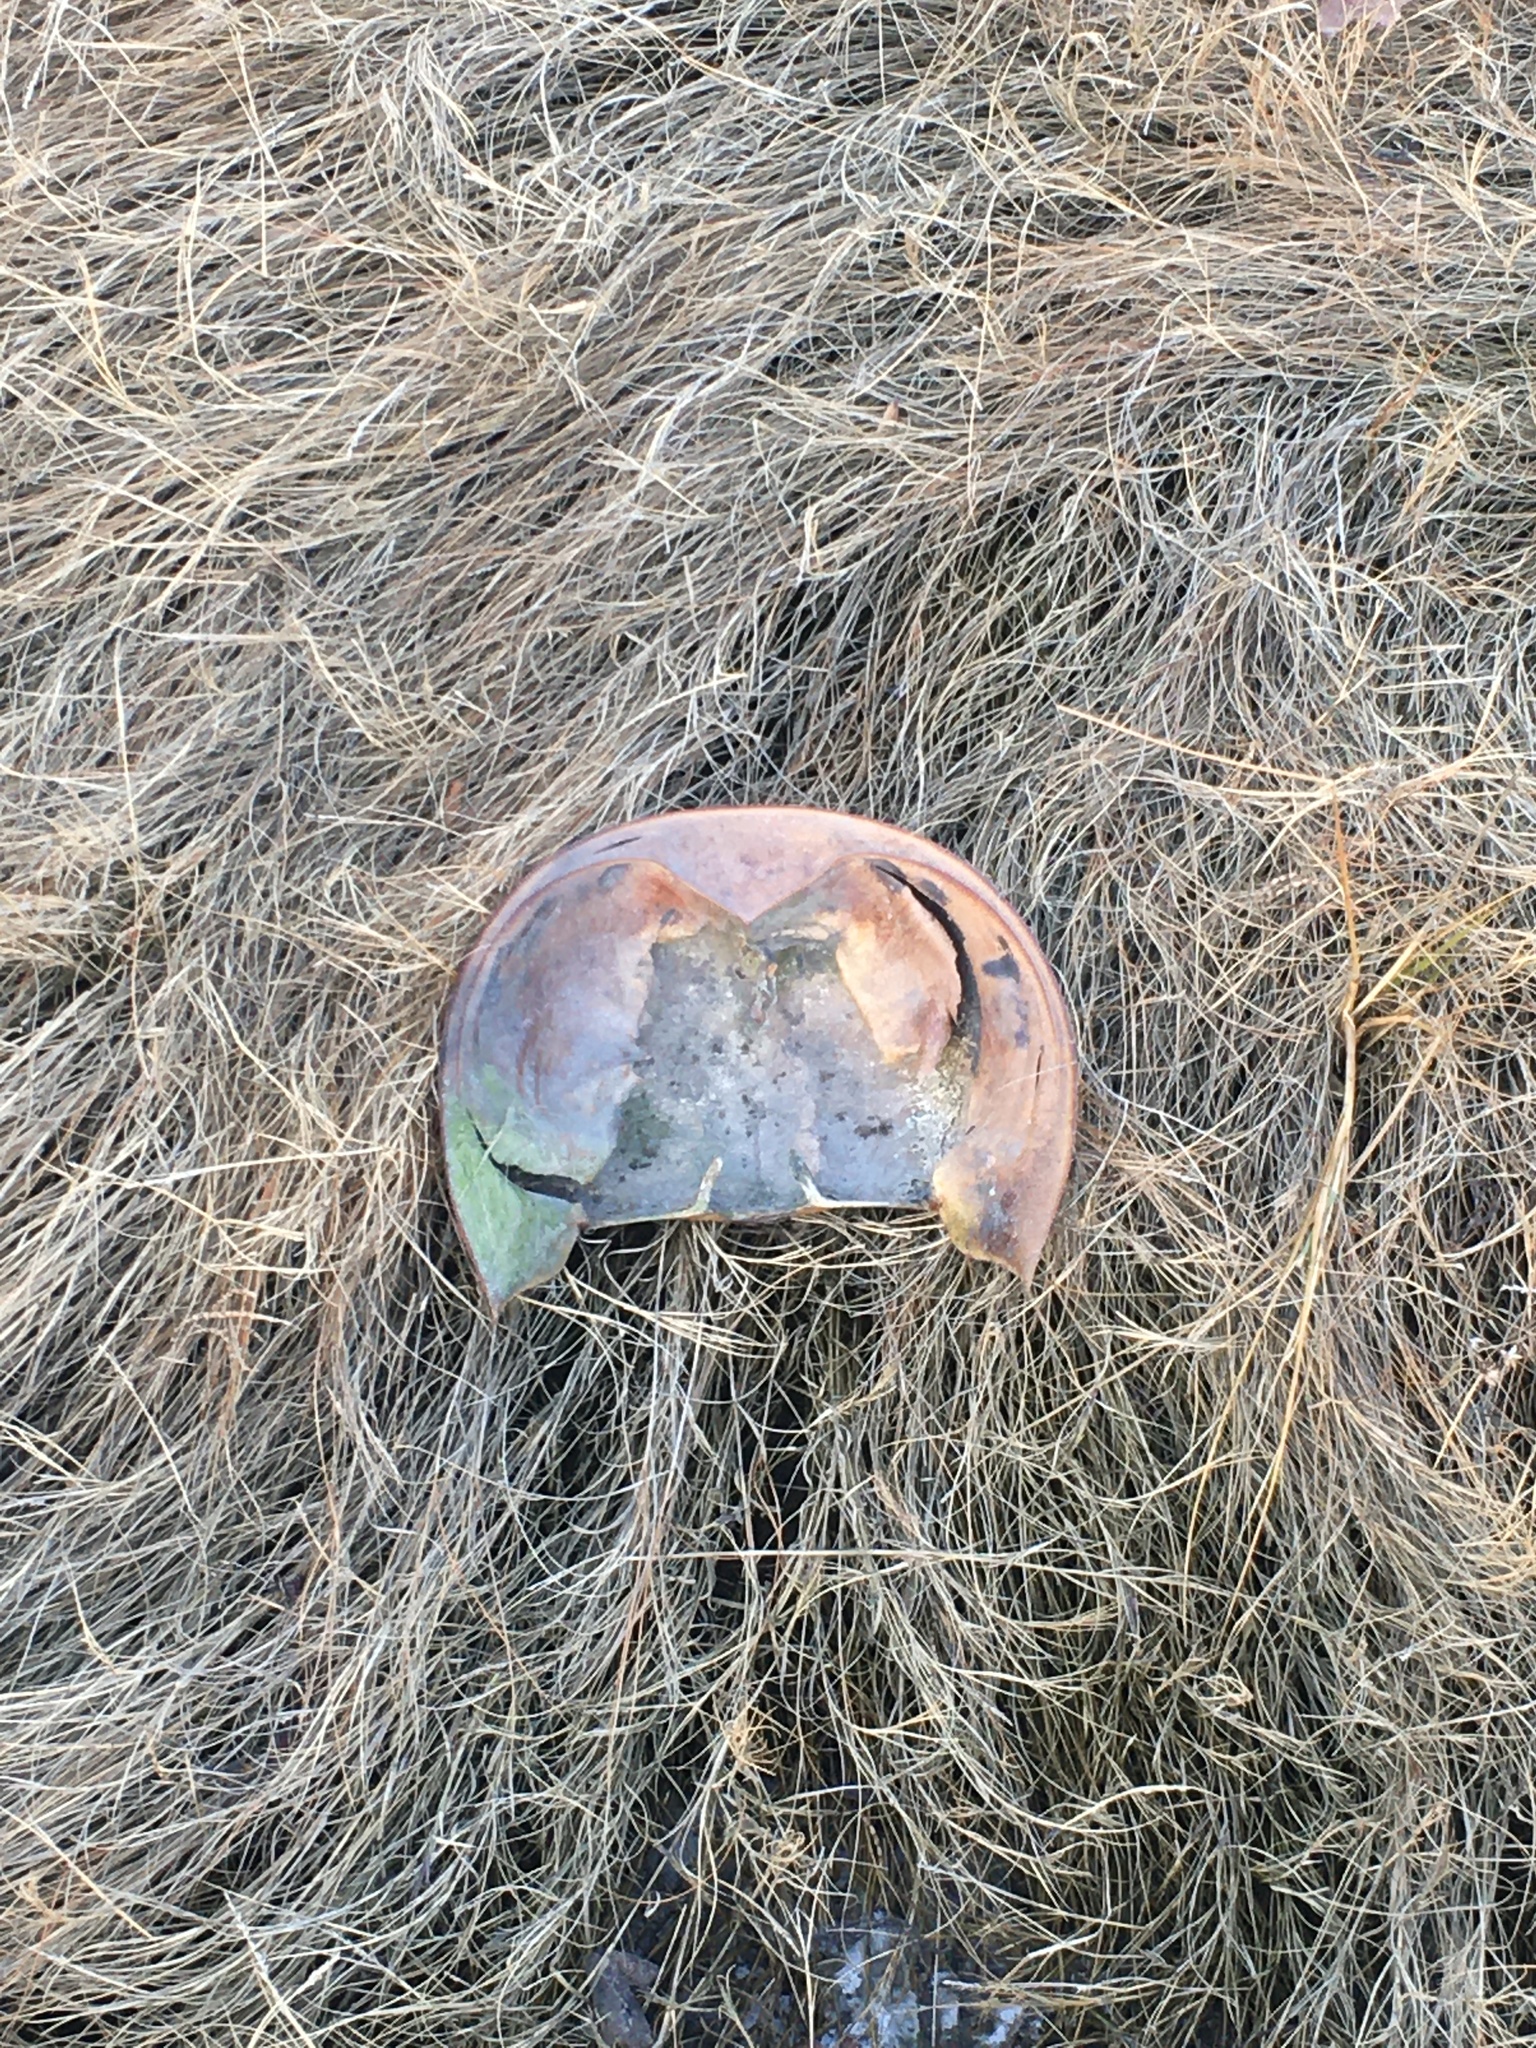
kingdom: Animalia
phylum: Arthropoda
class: Merostomata
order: Xiphosurida
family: Limulidae
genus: Limulus
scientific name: Limulus polyphemus
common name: Horseshoe crab
